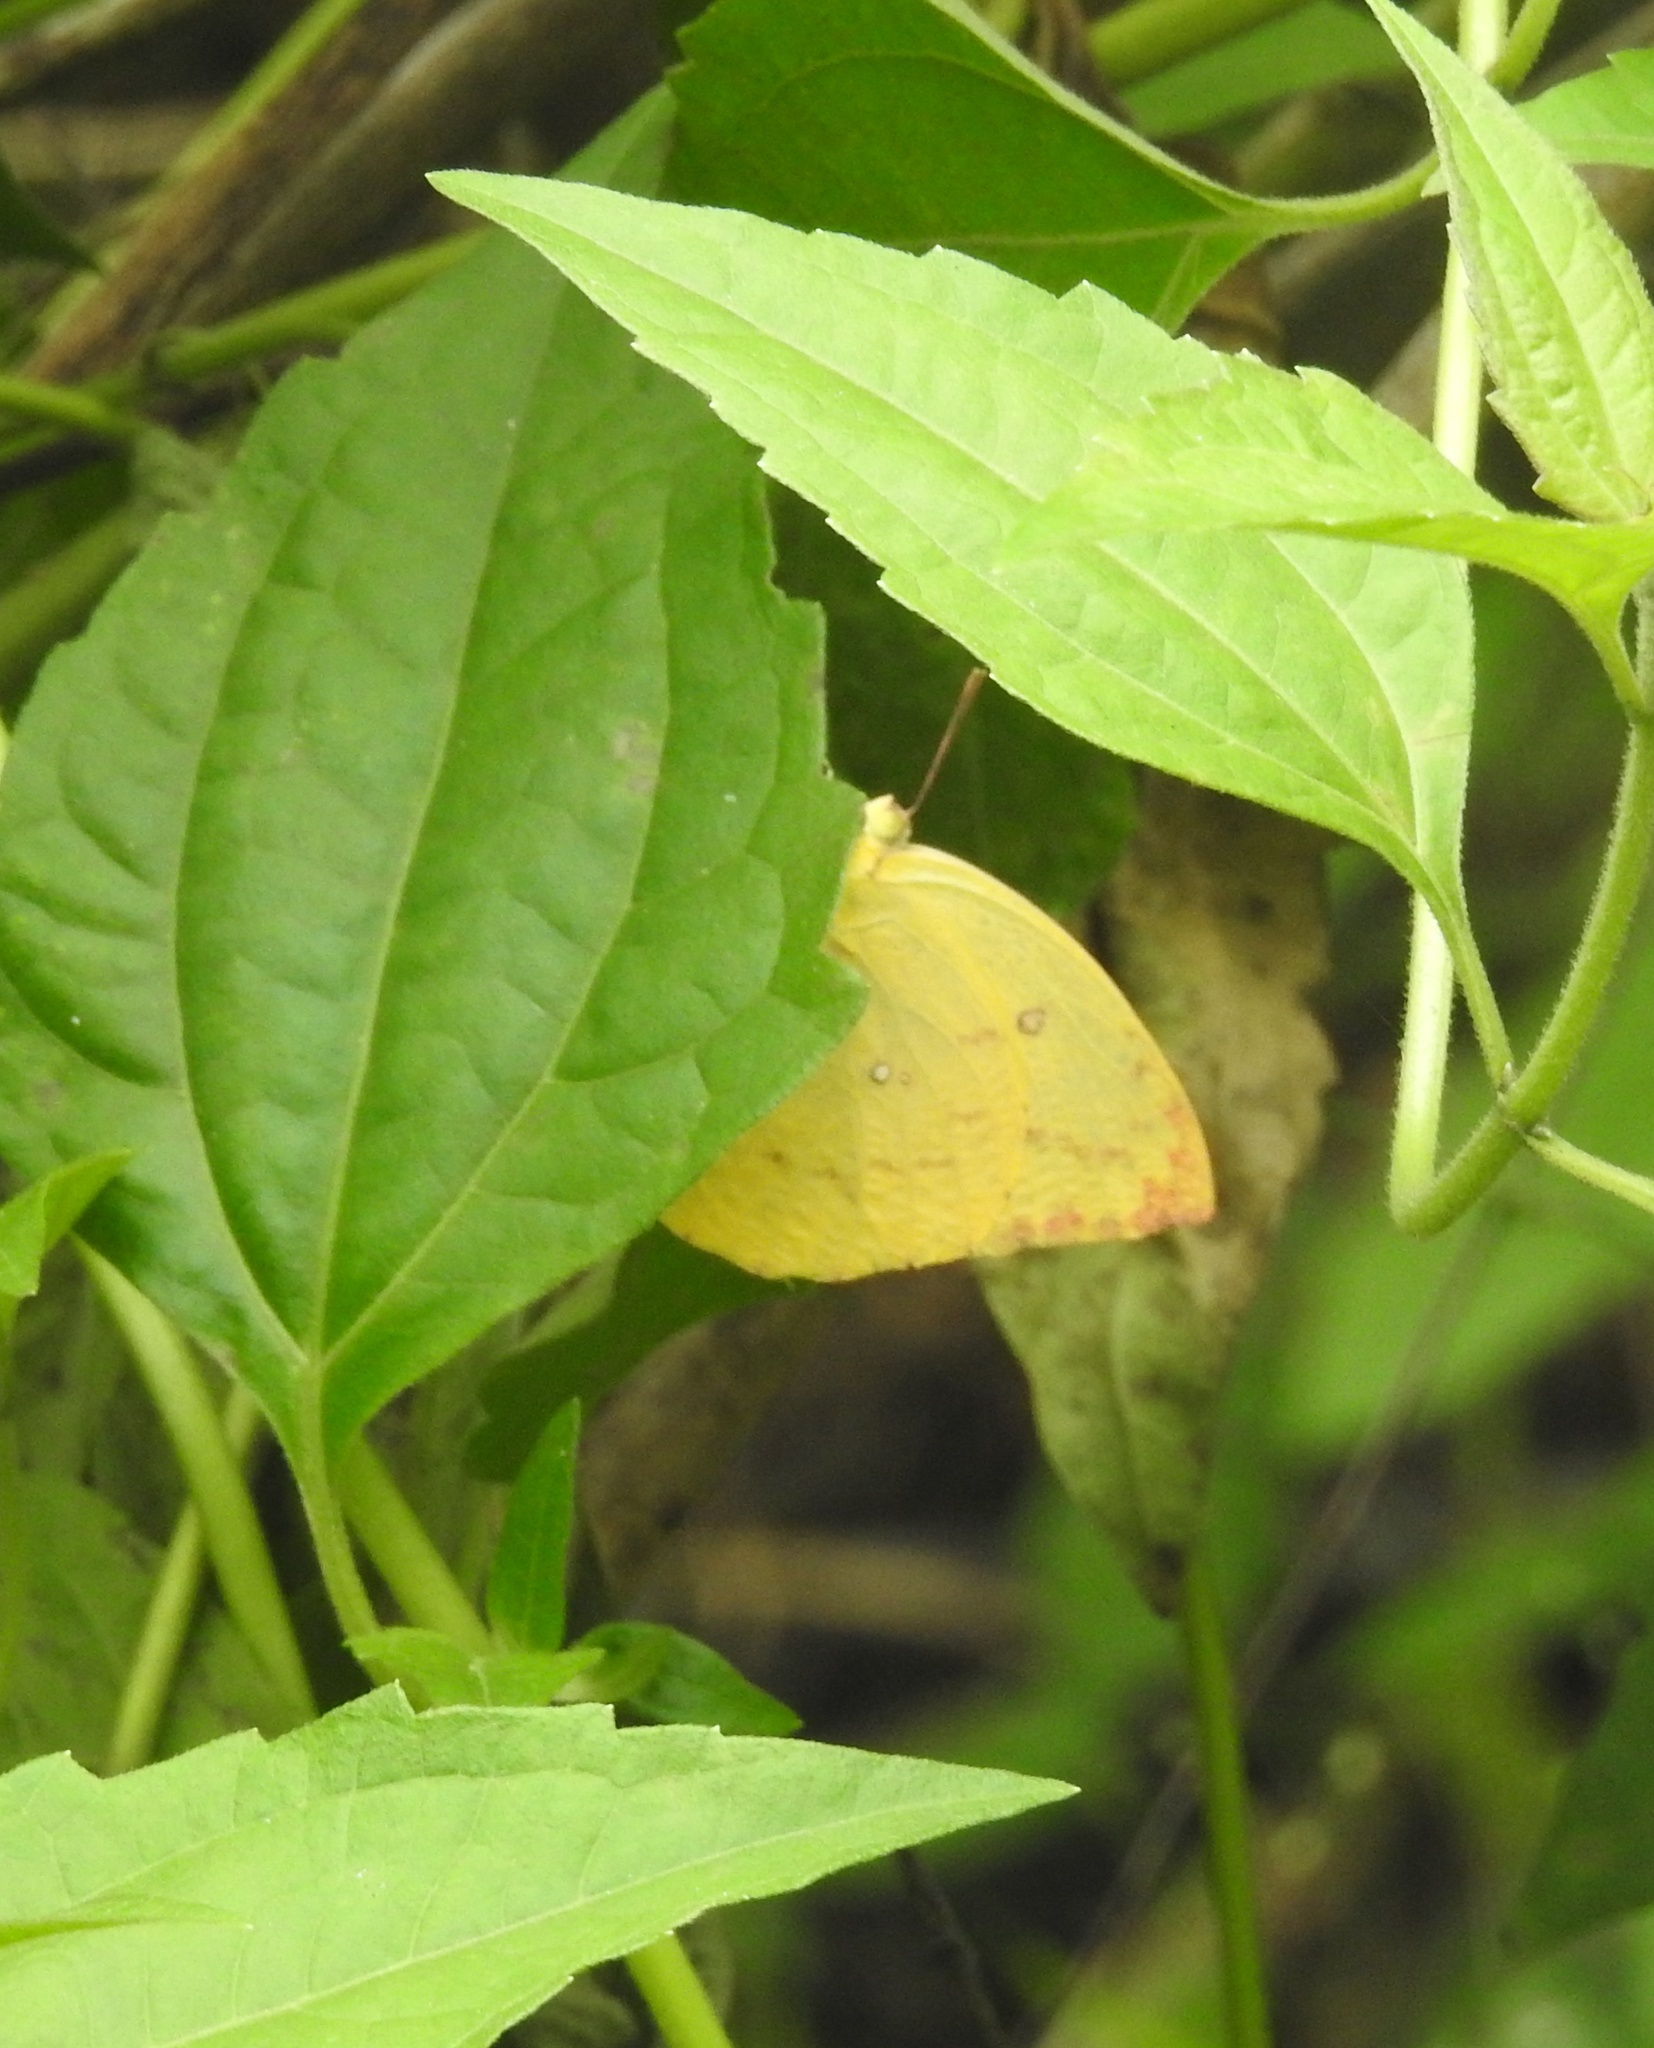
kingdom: Animalia
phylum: Arthropoda
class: Insecta
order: Lepidoptera
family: Pieridae
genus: Catopsilia
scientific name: Catopsilia pomona
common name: Common emigrant
